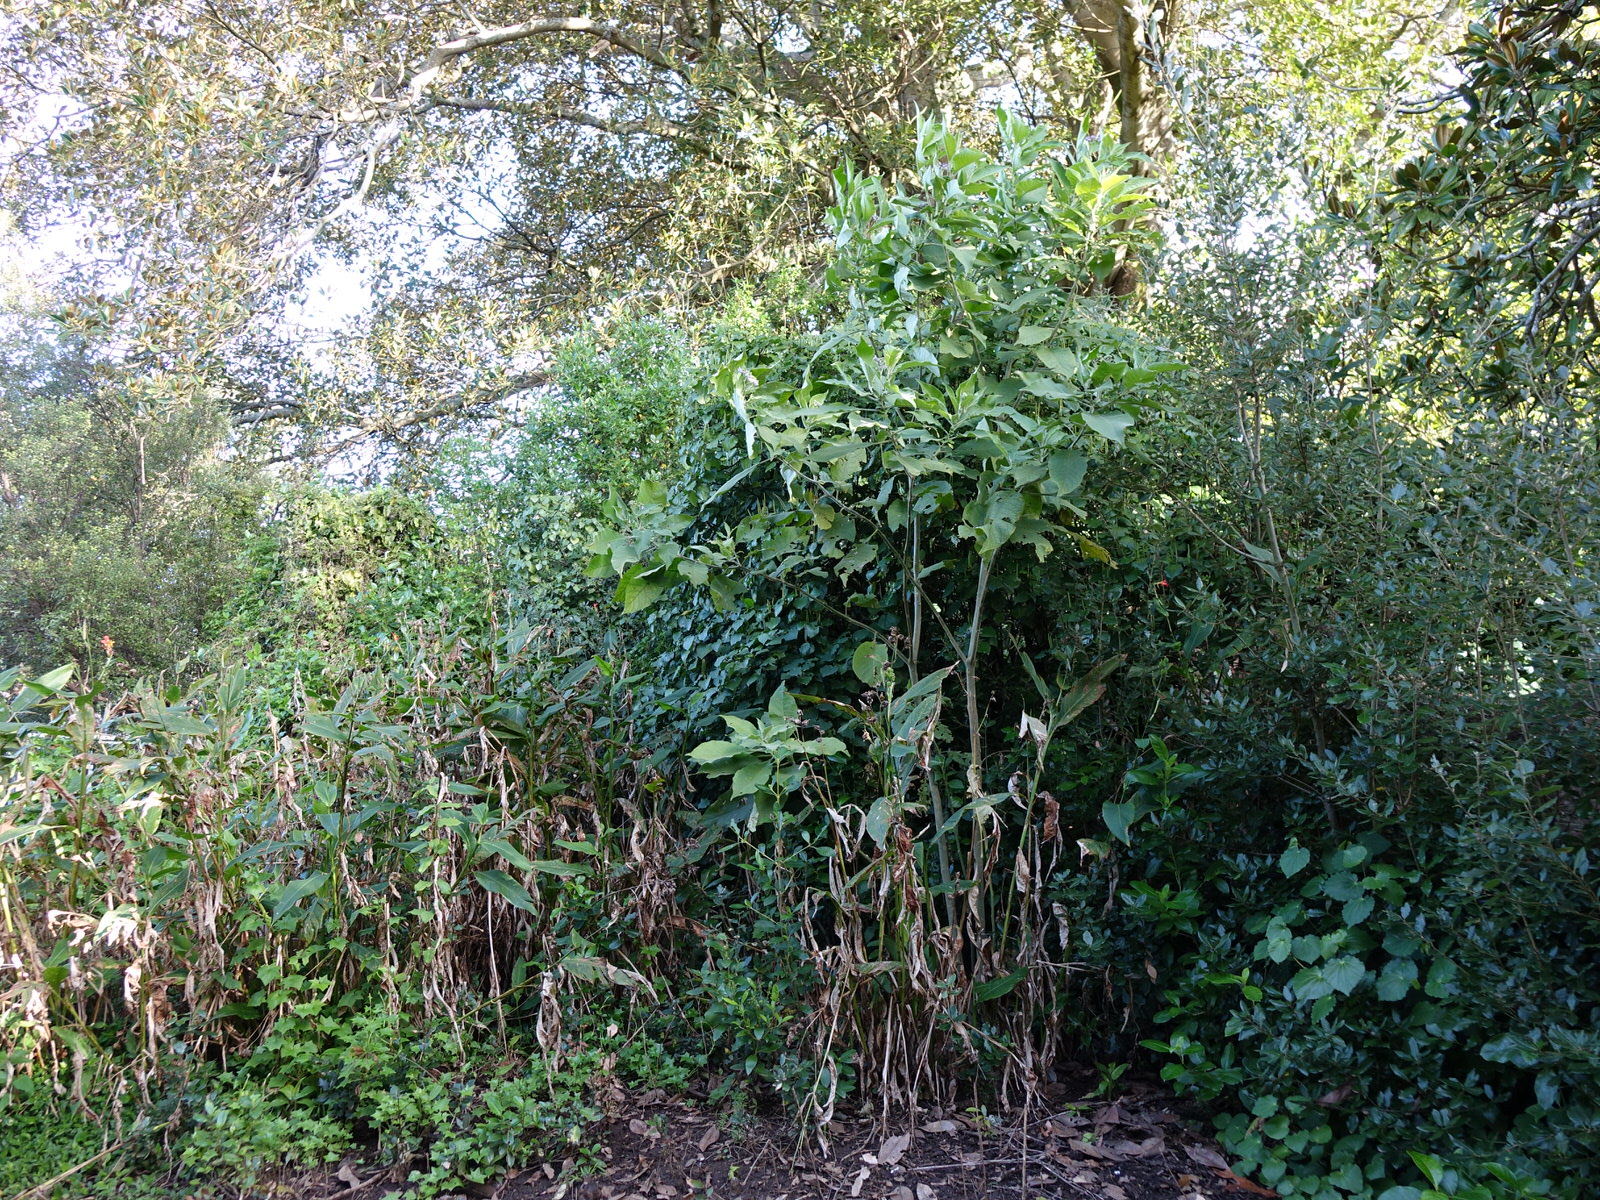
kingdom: Plantae
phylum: Tracheophyta
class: Magnoliopsida
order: Solanales
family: Solanaceae
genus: Solanum
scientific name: Solanum mauritianum
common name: Earleaf nightshade
